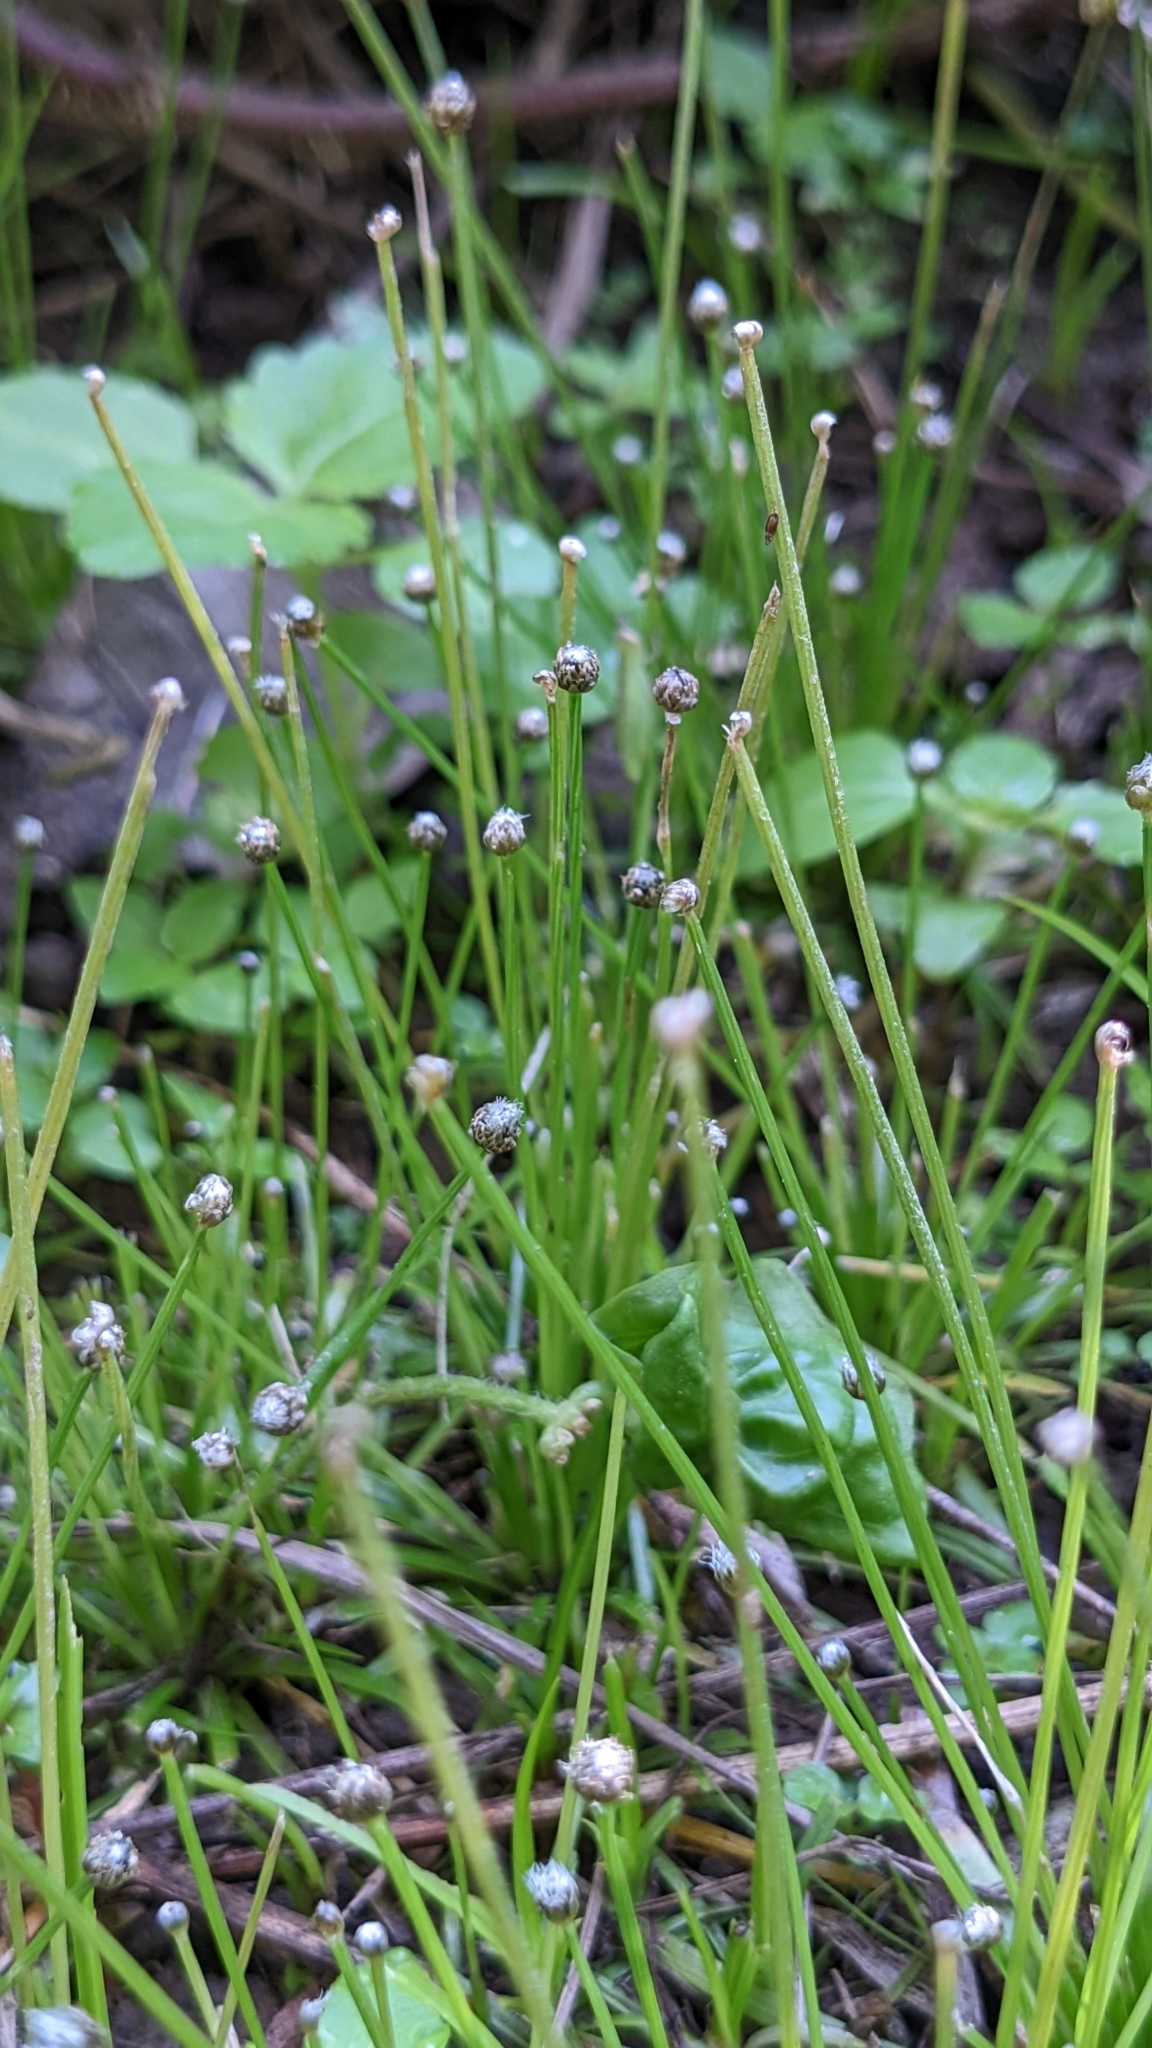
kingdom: Plantae
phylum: Tracheophyta
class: Liliopsida
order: Poales
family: Eriocaulaceae
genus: Eriocaulon
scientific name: Eriocaulon cinereum
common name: Ashy pipewort
